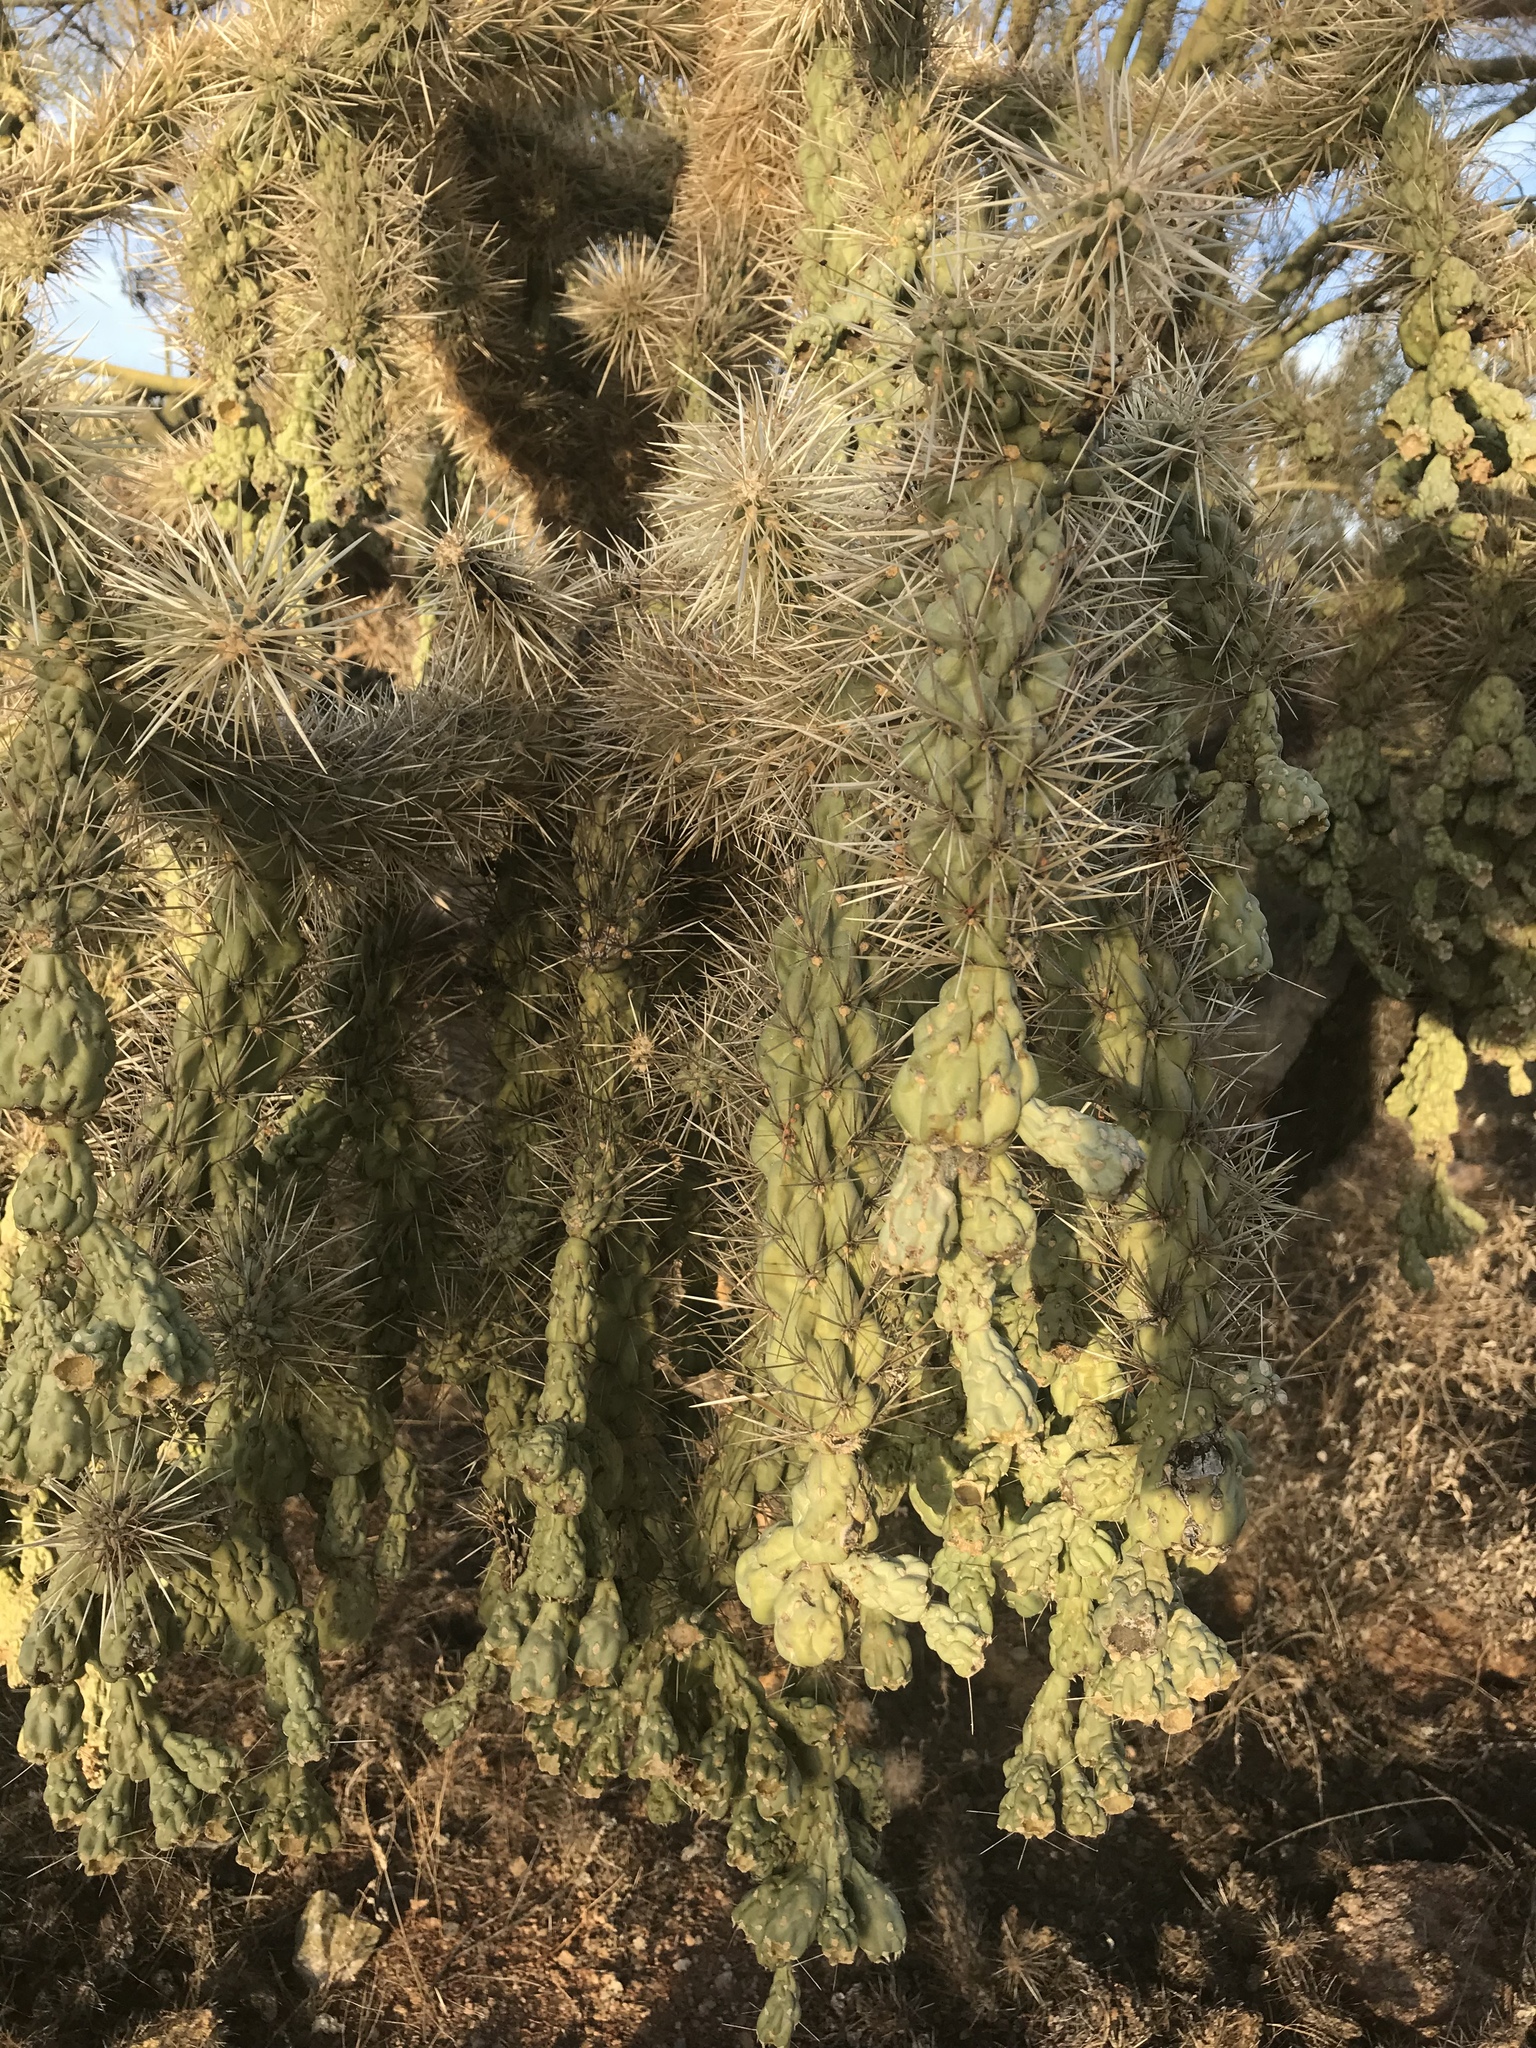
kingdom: Plantae
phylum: Tracheophyta
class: Magnoliopsida
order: Caryophyllales
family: Cactaceae
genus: Cylindropuntia
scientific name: Cylindropuntia fulgida
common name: Jumping cholla
